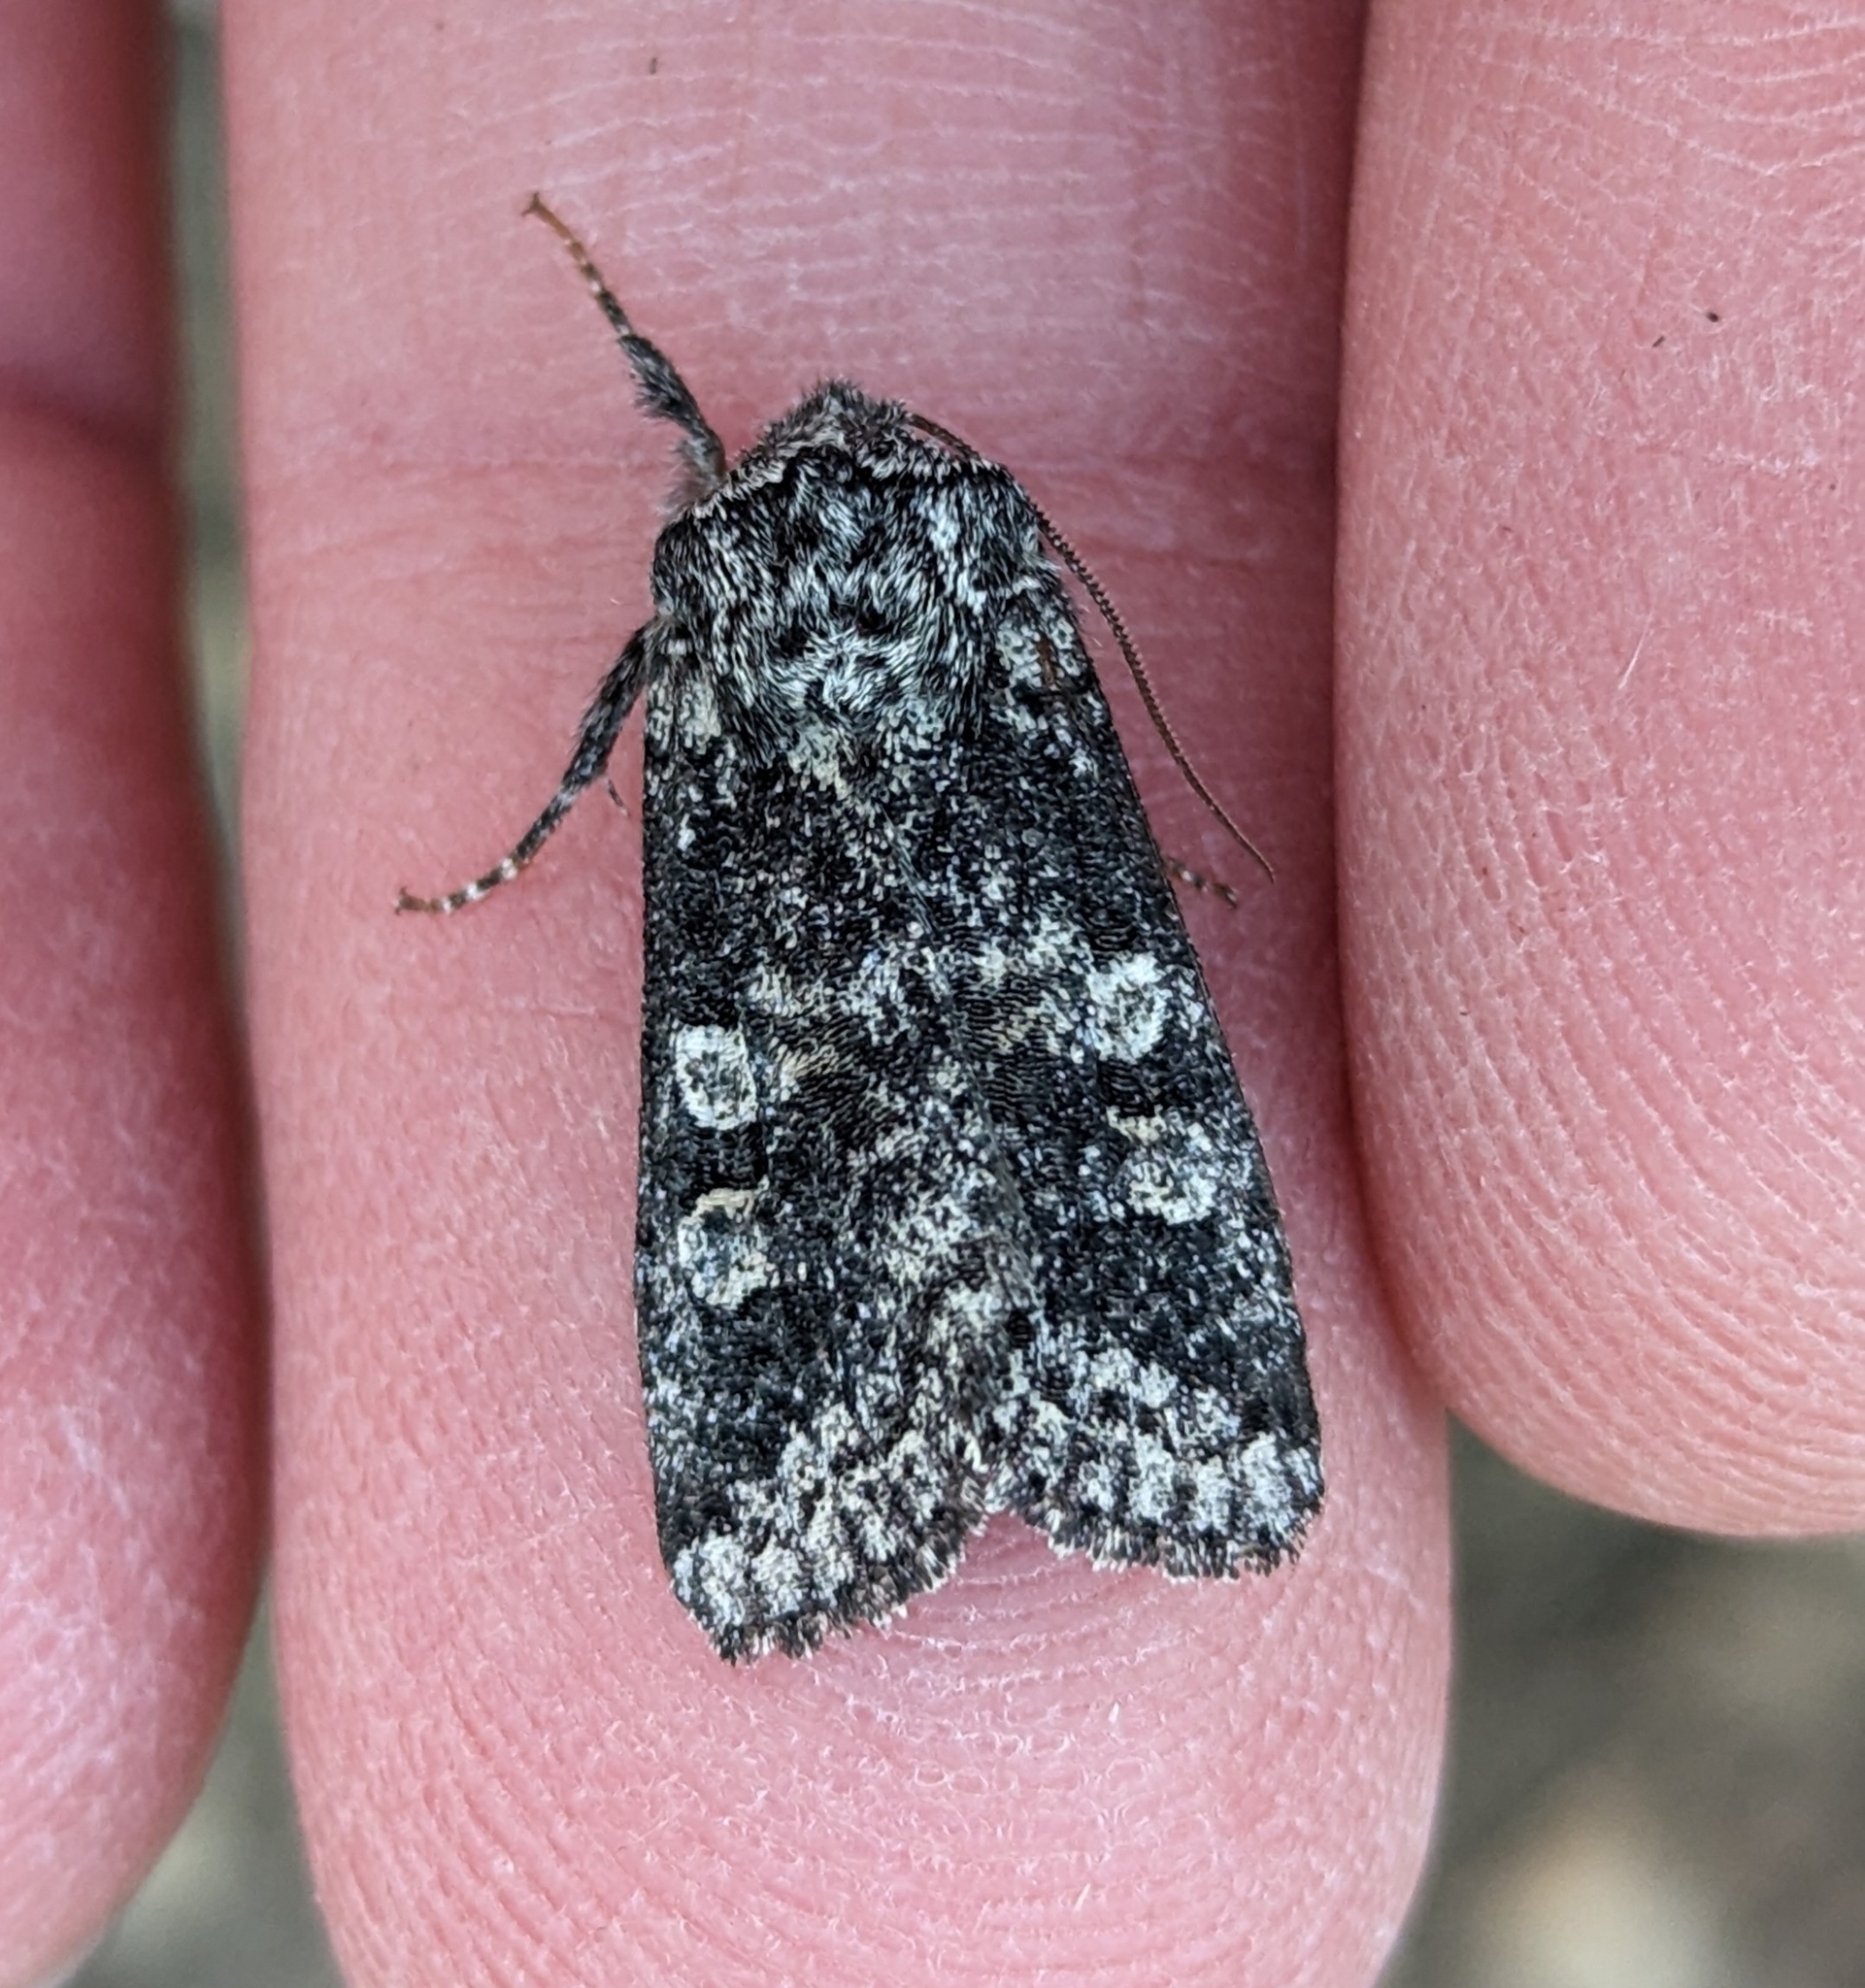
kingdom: Animalia
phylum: Arthropoda
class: Insecta
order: Lepidoptera
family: Noctuidae
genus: Egira
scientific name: Egira dolosa
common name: Lined black aspen cat.
